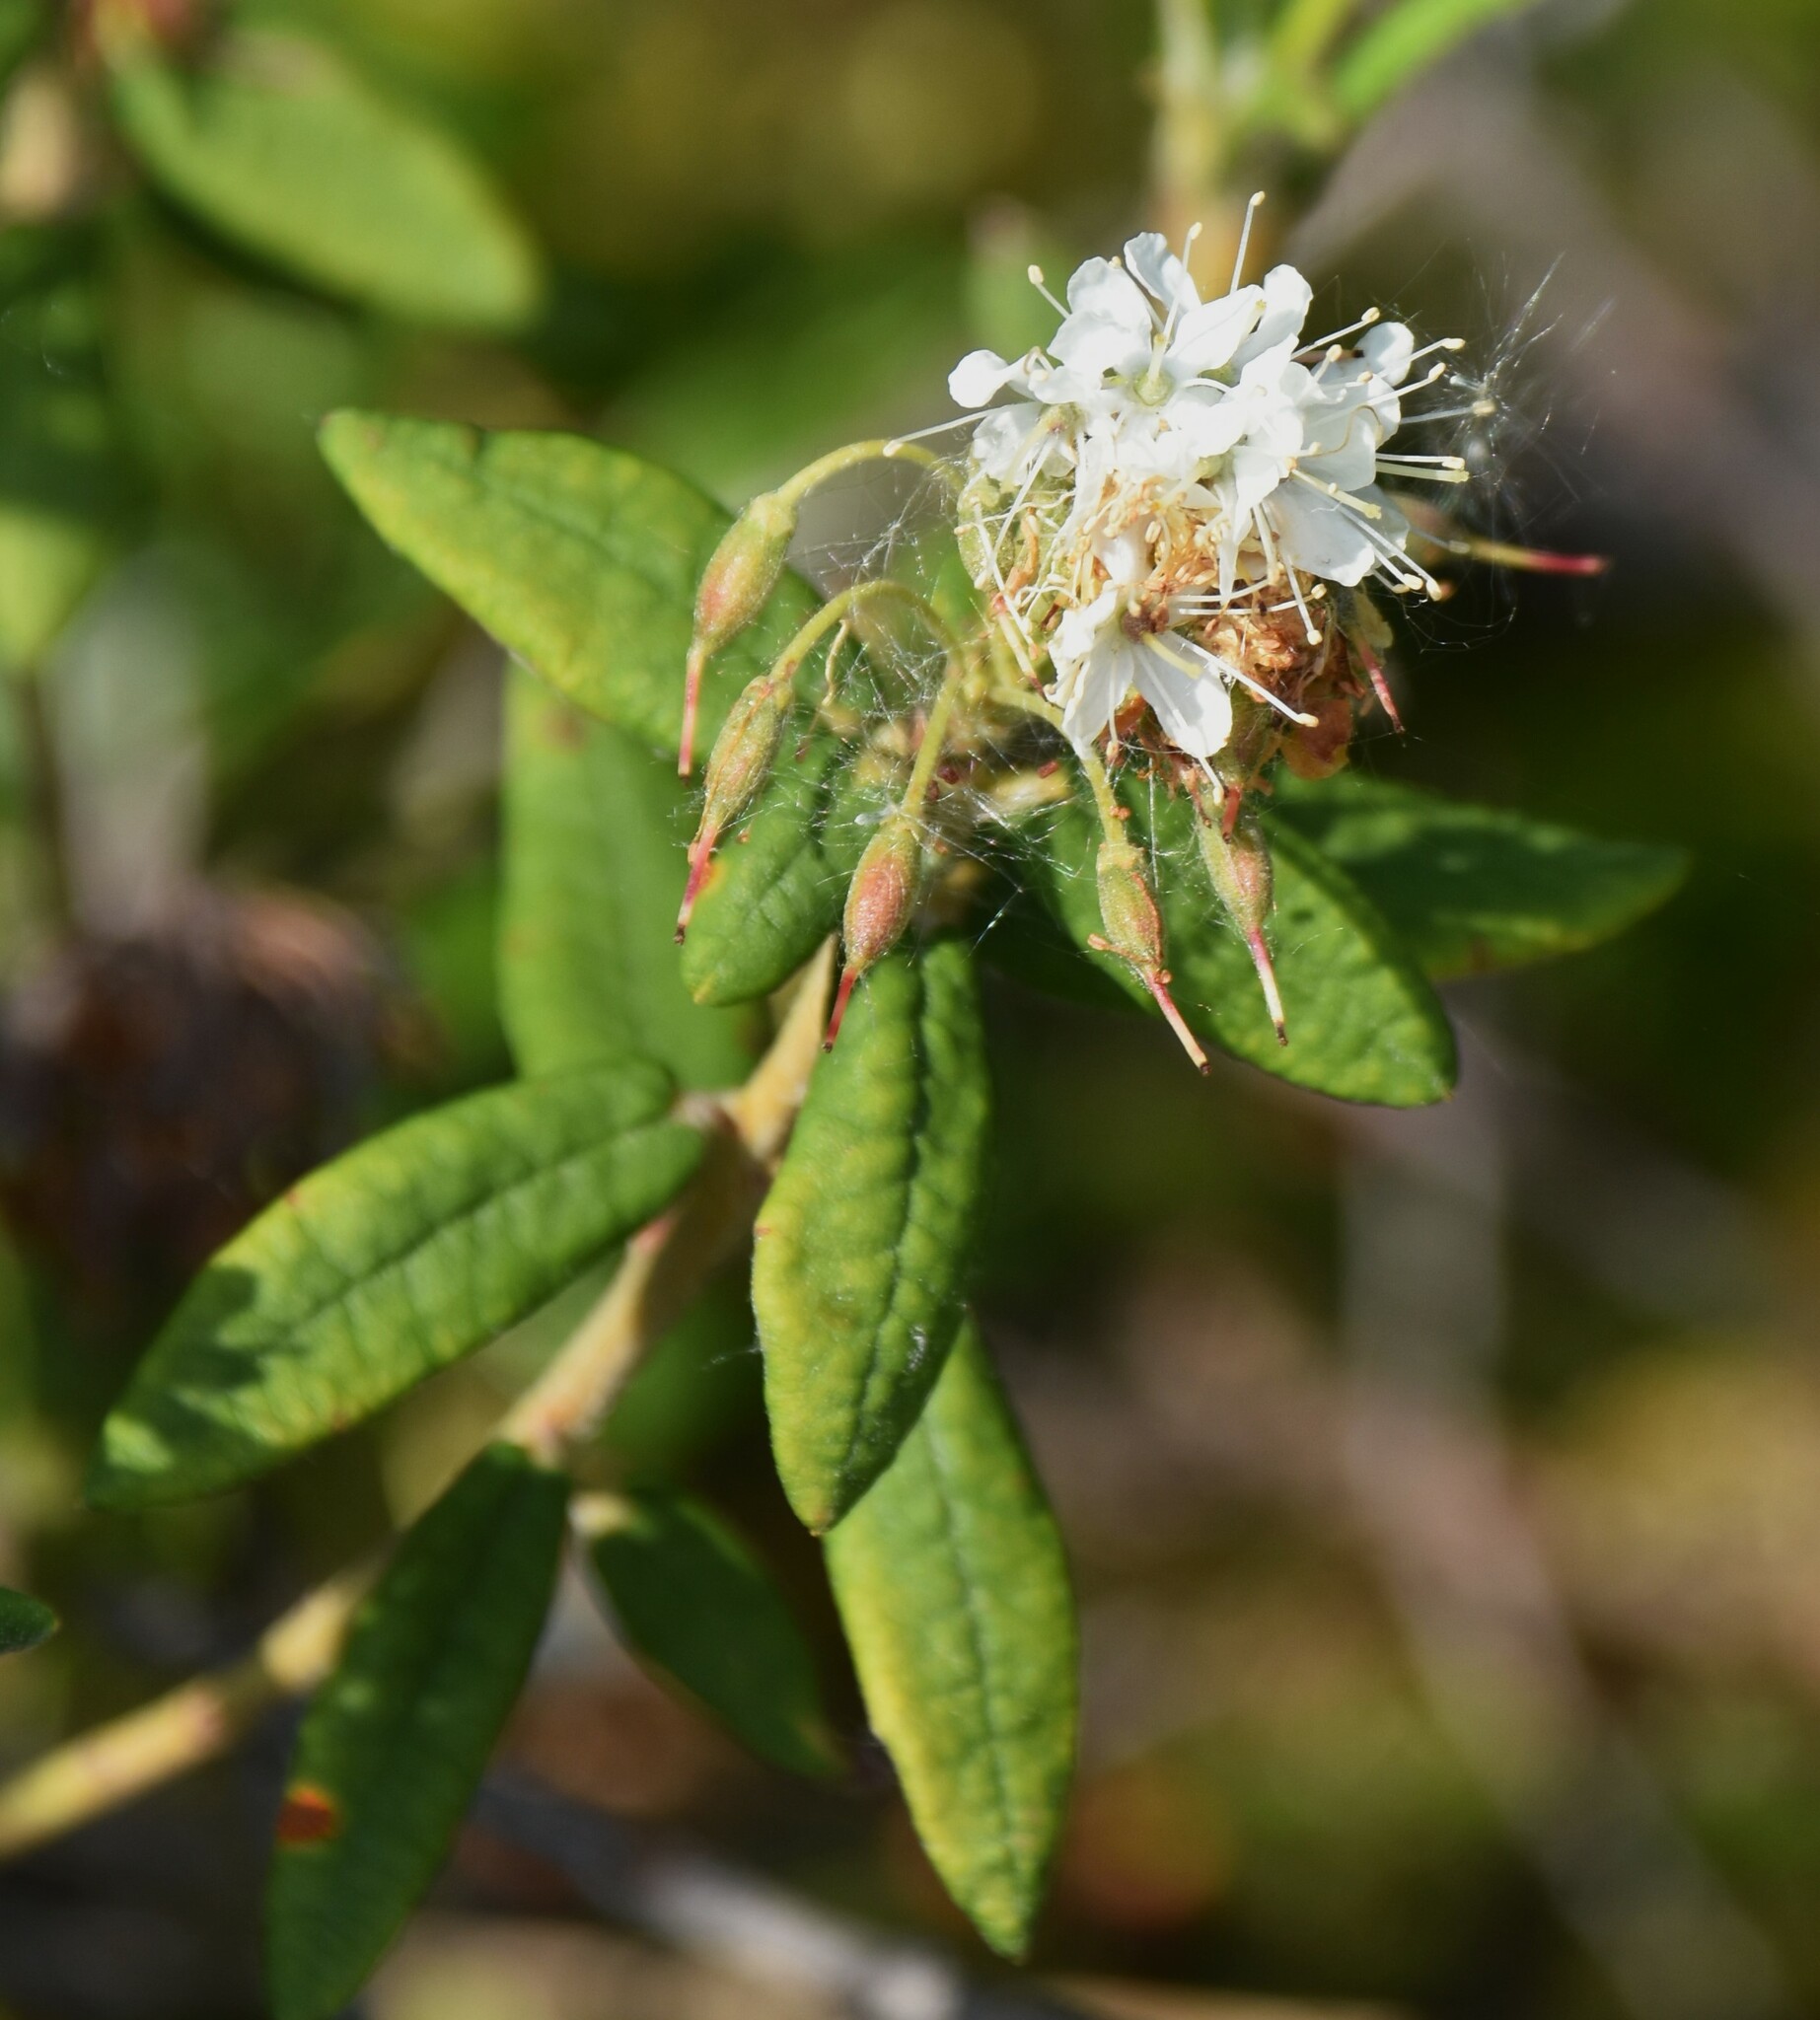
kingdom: Plantae
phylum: Tracheophyta
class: Magnoliopsida
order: Ericales
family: Ericaceae
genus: Rhododendron
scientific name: Rhododendron groenlandicum
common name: Bog labrador tea
